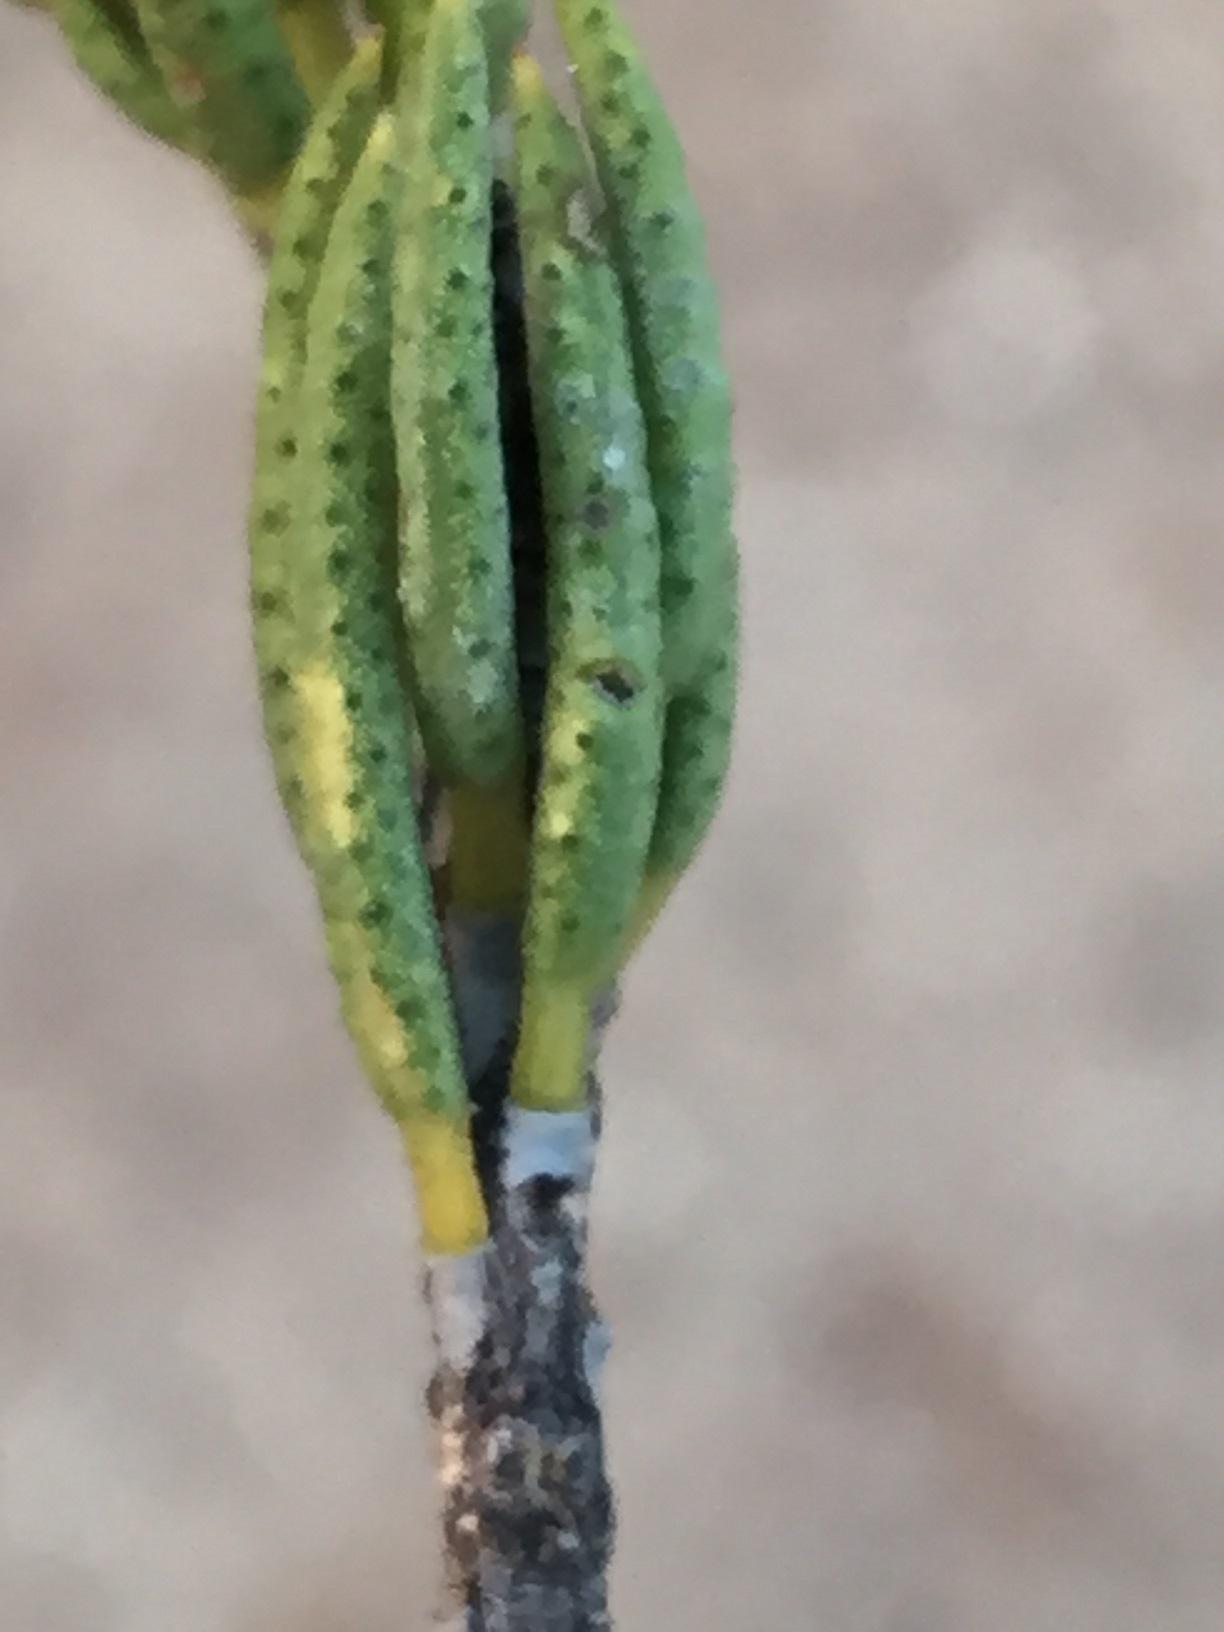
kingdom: Plantae
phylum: Tracheophyta
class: Magnoliopsida
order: Sapindales
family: Rutaceae
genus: Acmadenia
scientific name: Acmadenia wittebergensis
